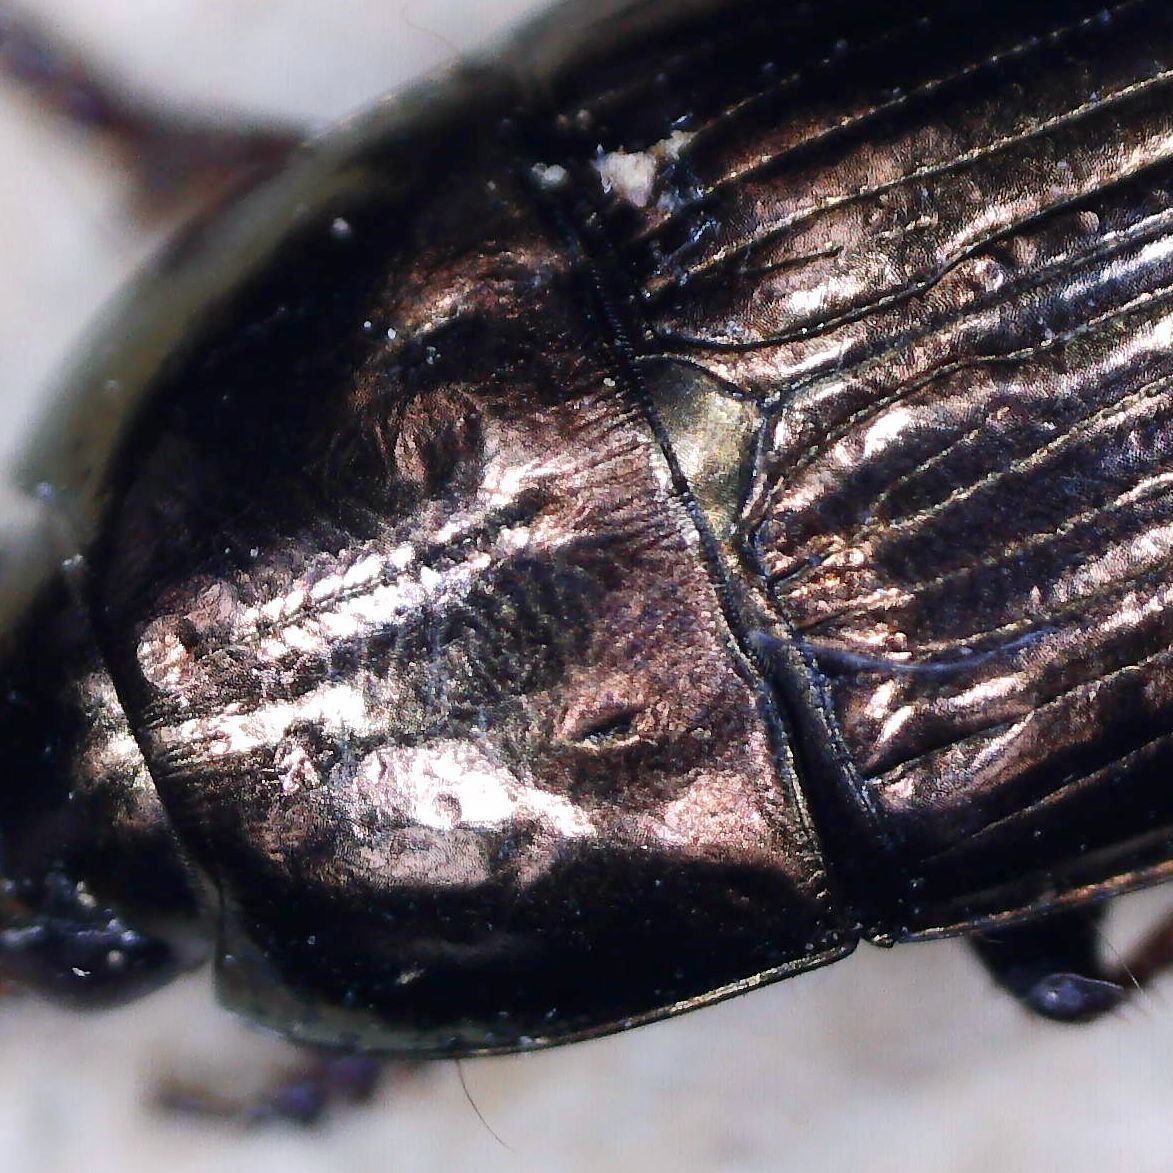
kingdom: Animalia
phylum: Arthropoda
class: Insecta
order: Coleoptera
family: Carabidae
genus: Amara
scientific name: Amara aenea
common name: Common sun beetle
